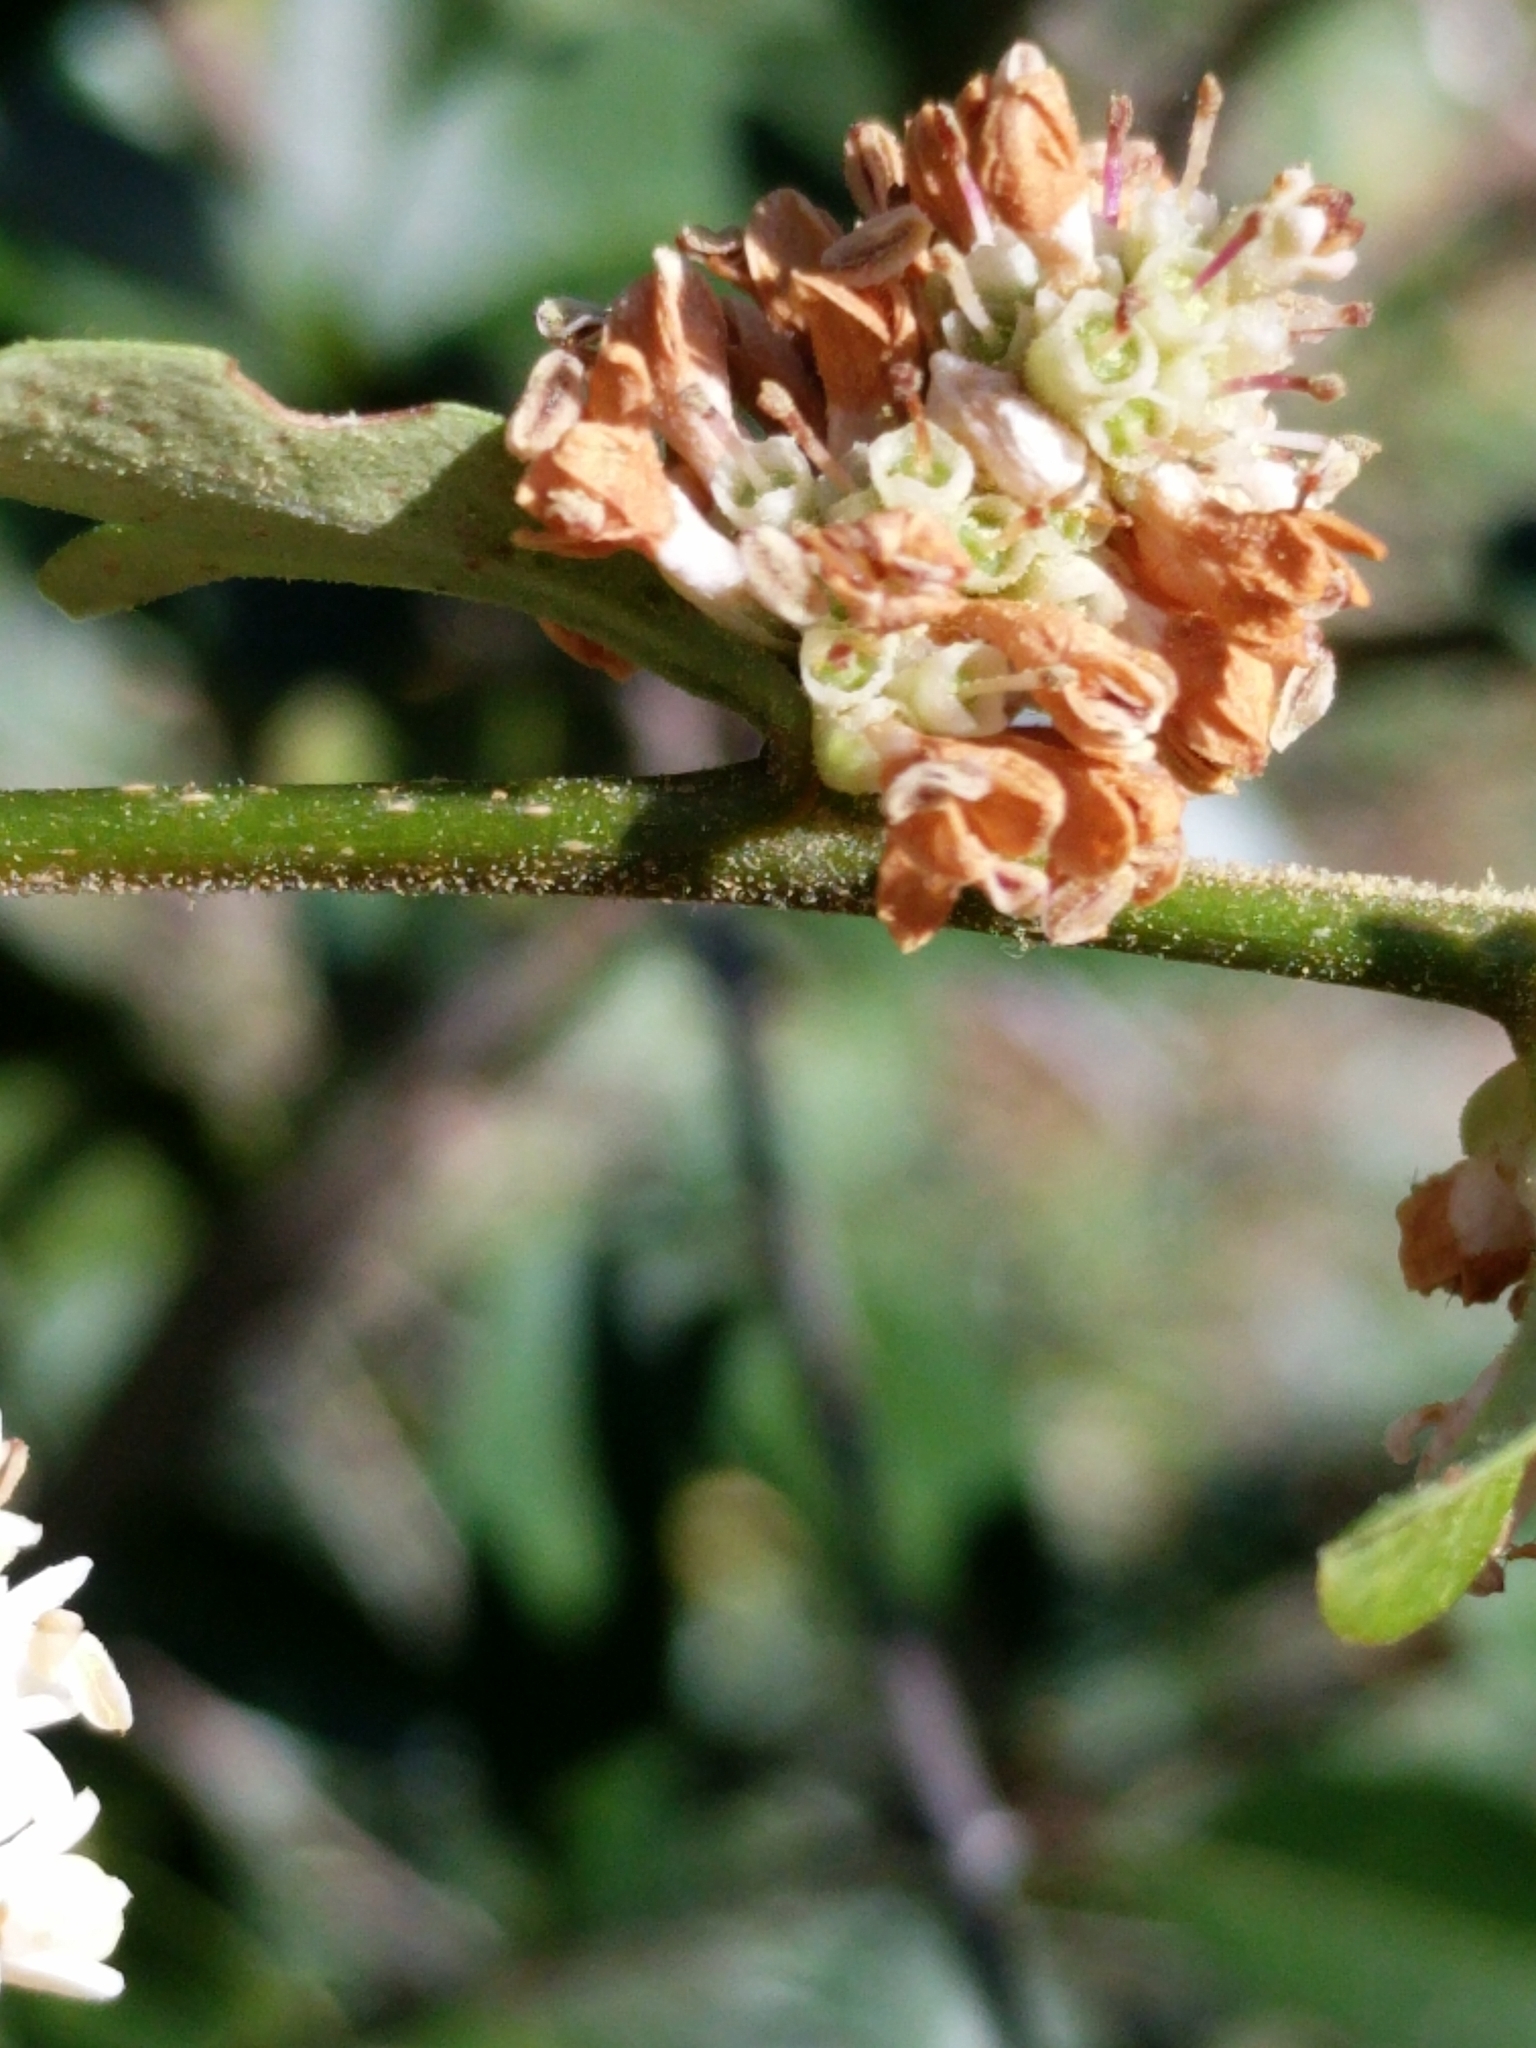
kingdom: Plantae
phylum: Tracheophyta
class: Magnoliopsida
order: Lamiales
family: Oleaceae
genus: Ligustrum
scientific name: Ligustrum quihoui
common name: Waxyleaf privet
